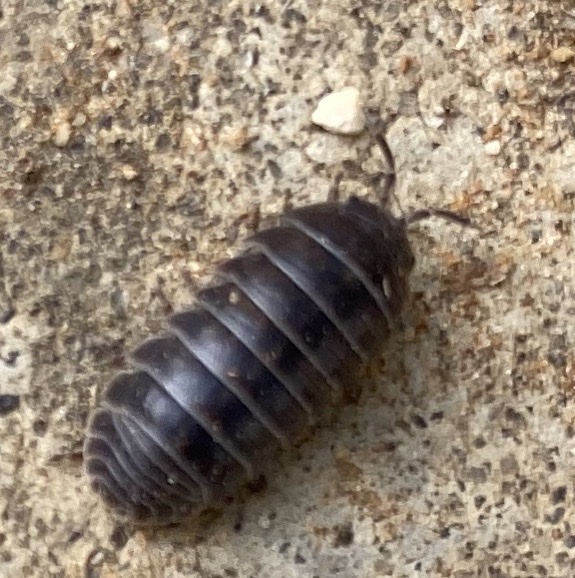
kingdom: Animalia
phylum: Arthropoda
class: Malacostraca
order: Isopoda
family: Armadillidiidae
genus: Armadillidium
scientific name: Armadillidium vulgare
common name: Common pill woodlouse
